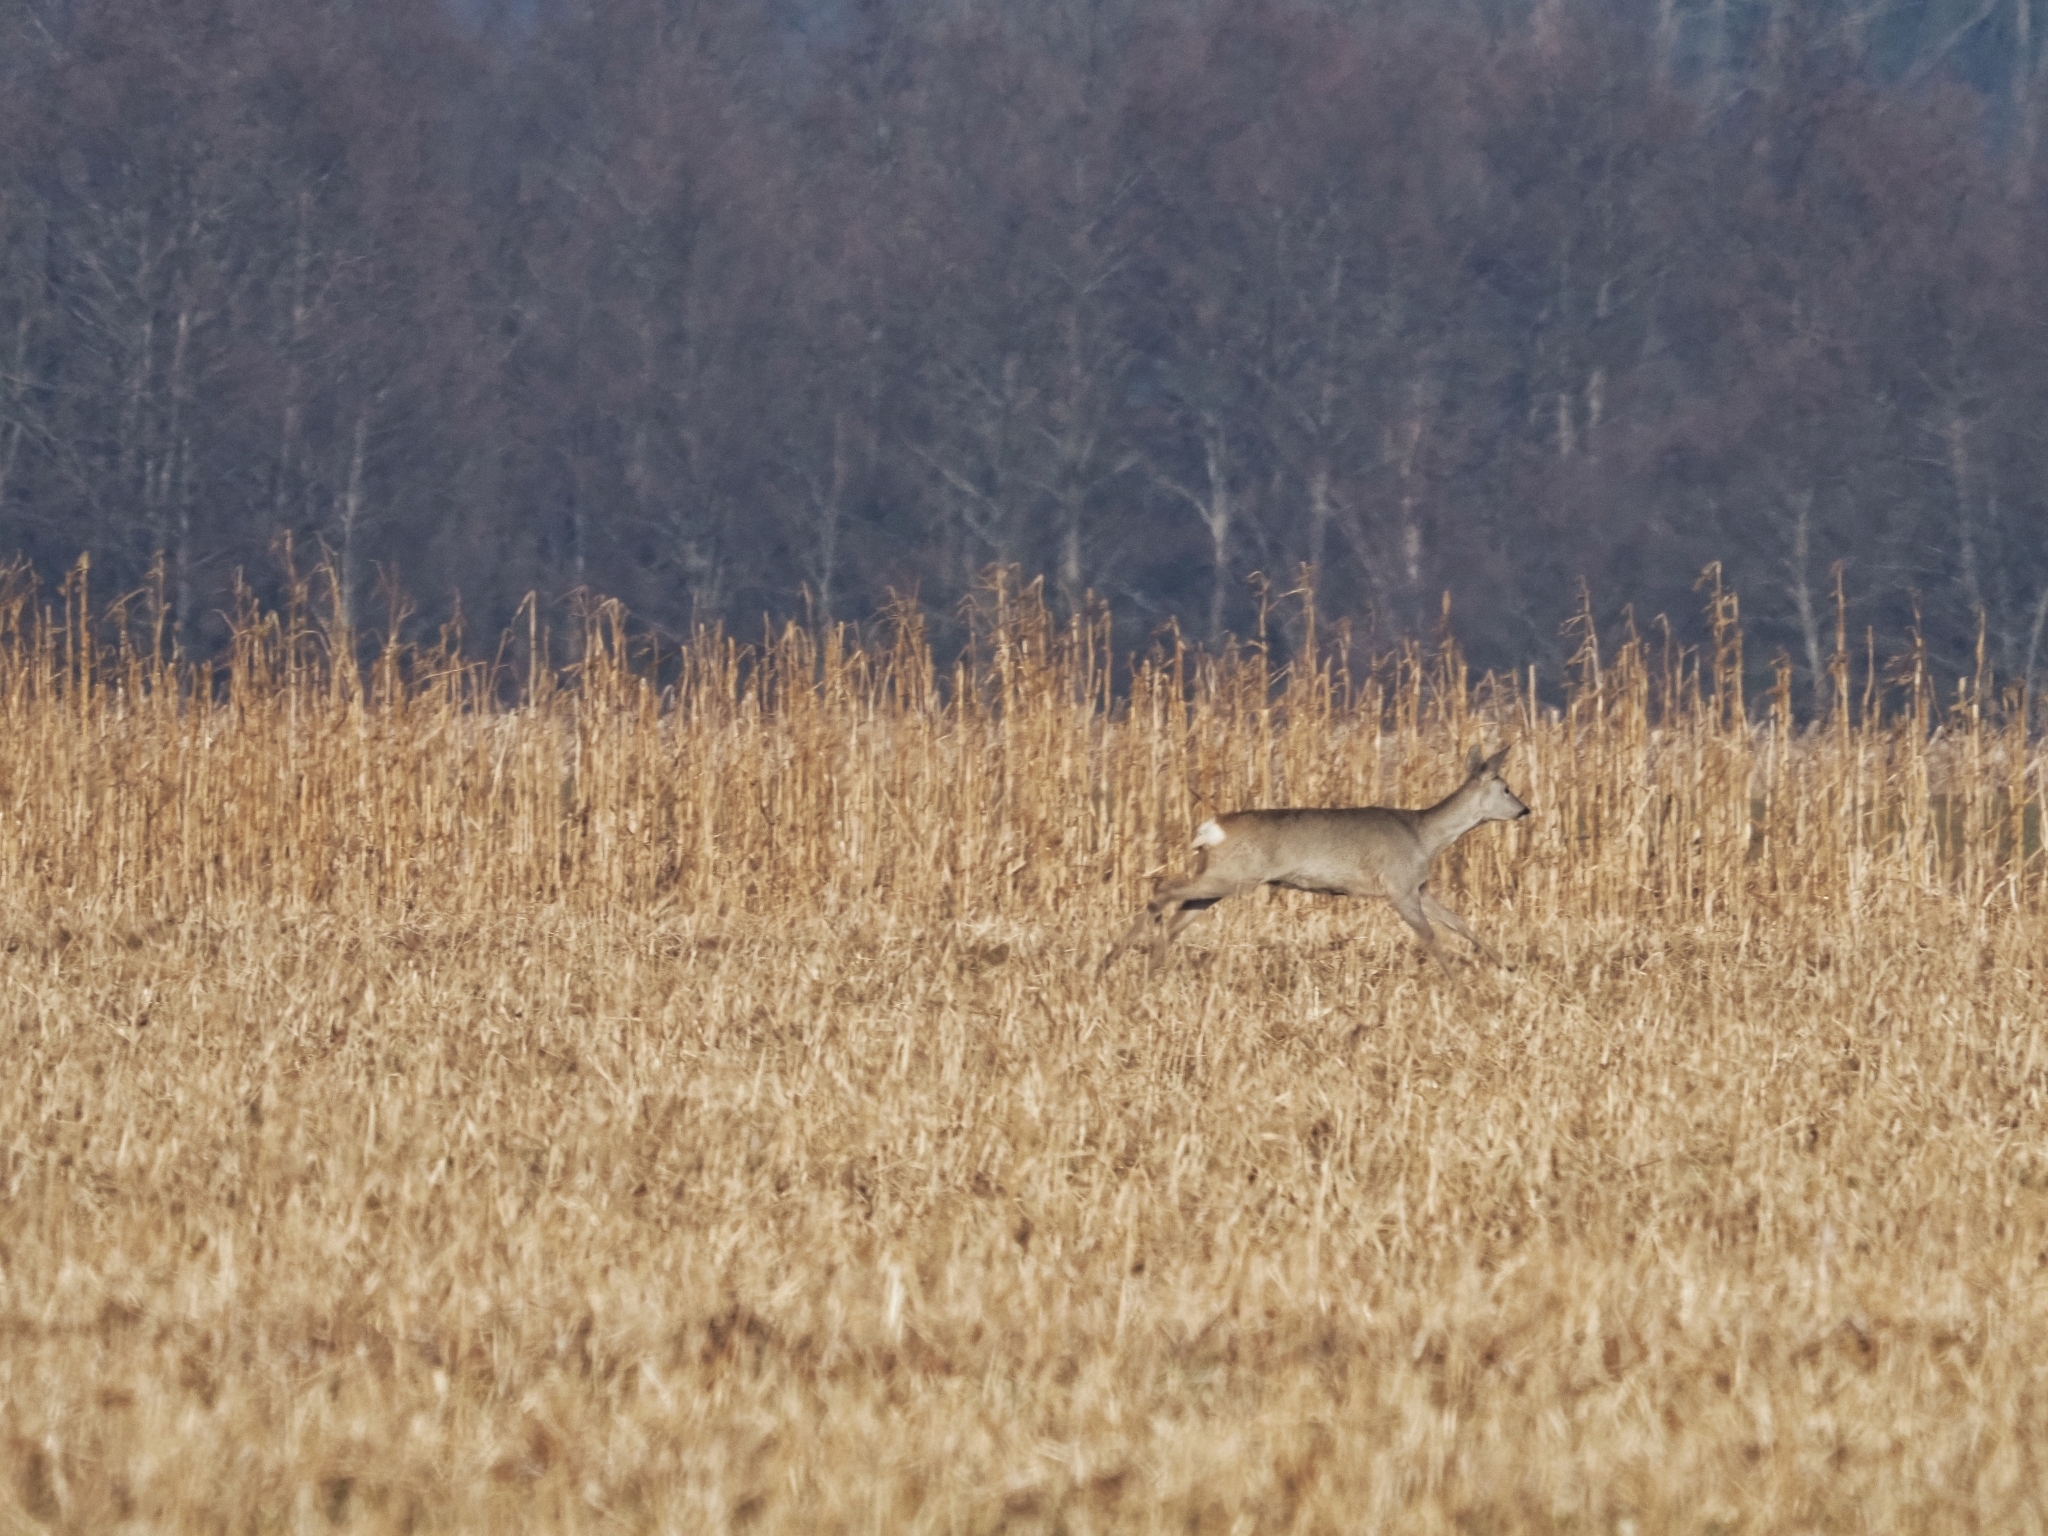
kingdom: Animalia
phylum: Chordata
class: Mammalia
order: Artiodactyla
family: Cervidae
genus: Capreolus
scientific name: Capreolus capreolus
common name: Western roe deer
